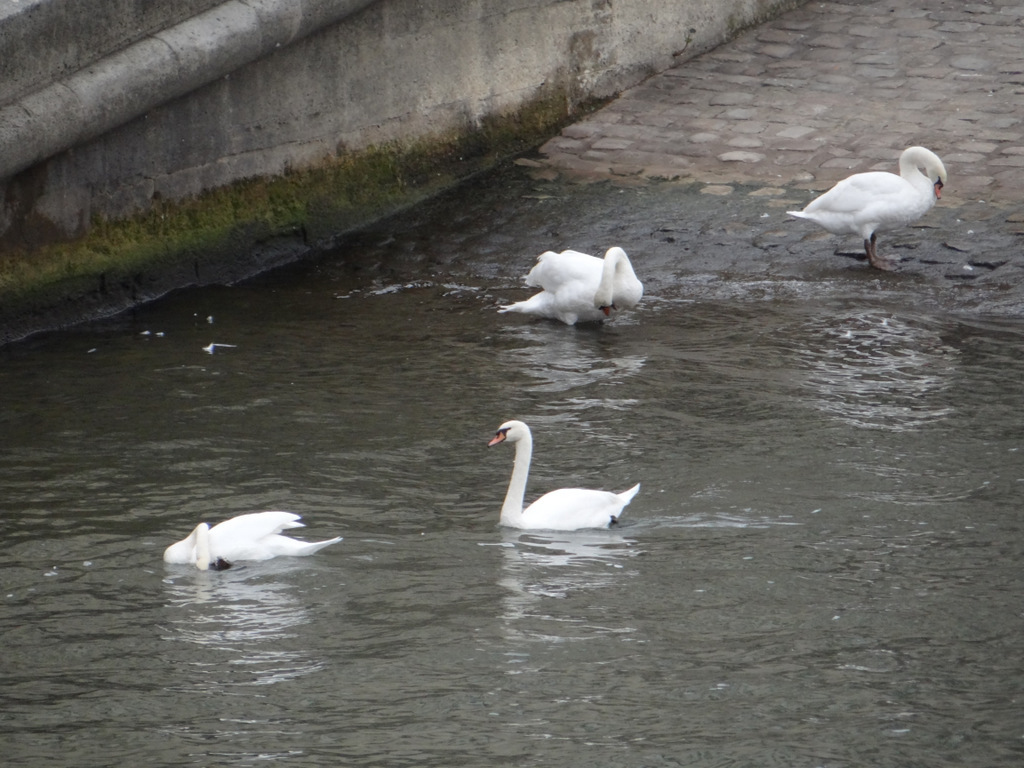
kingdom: Animalia
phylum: Chordata
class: Aves
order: Anseriformes
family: Anatidae
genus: Cygnus
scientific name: Cygnus olor
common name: Mute swan
